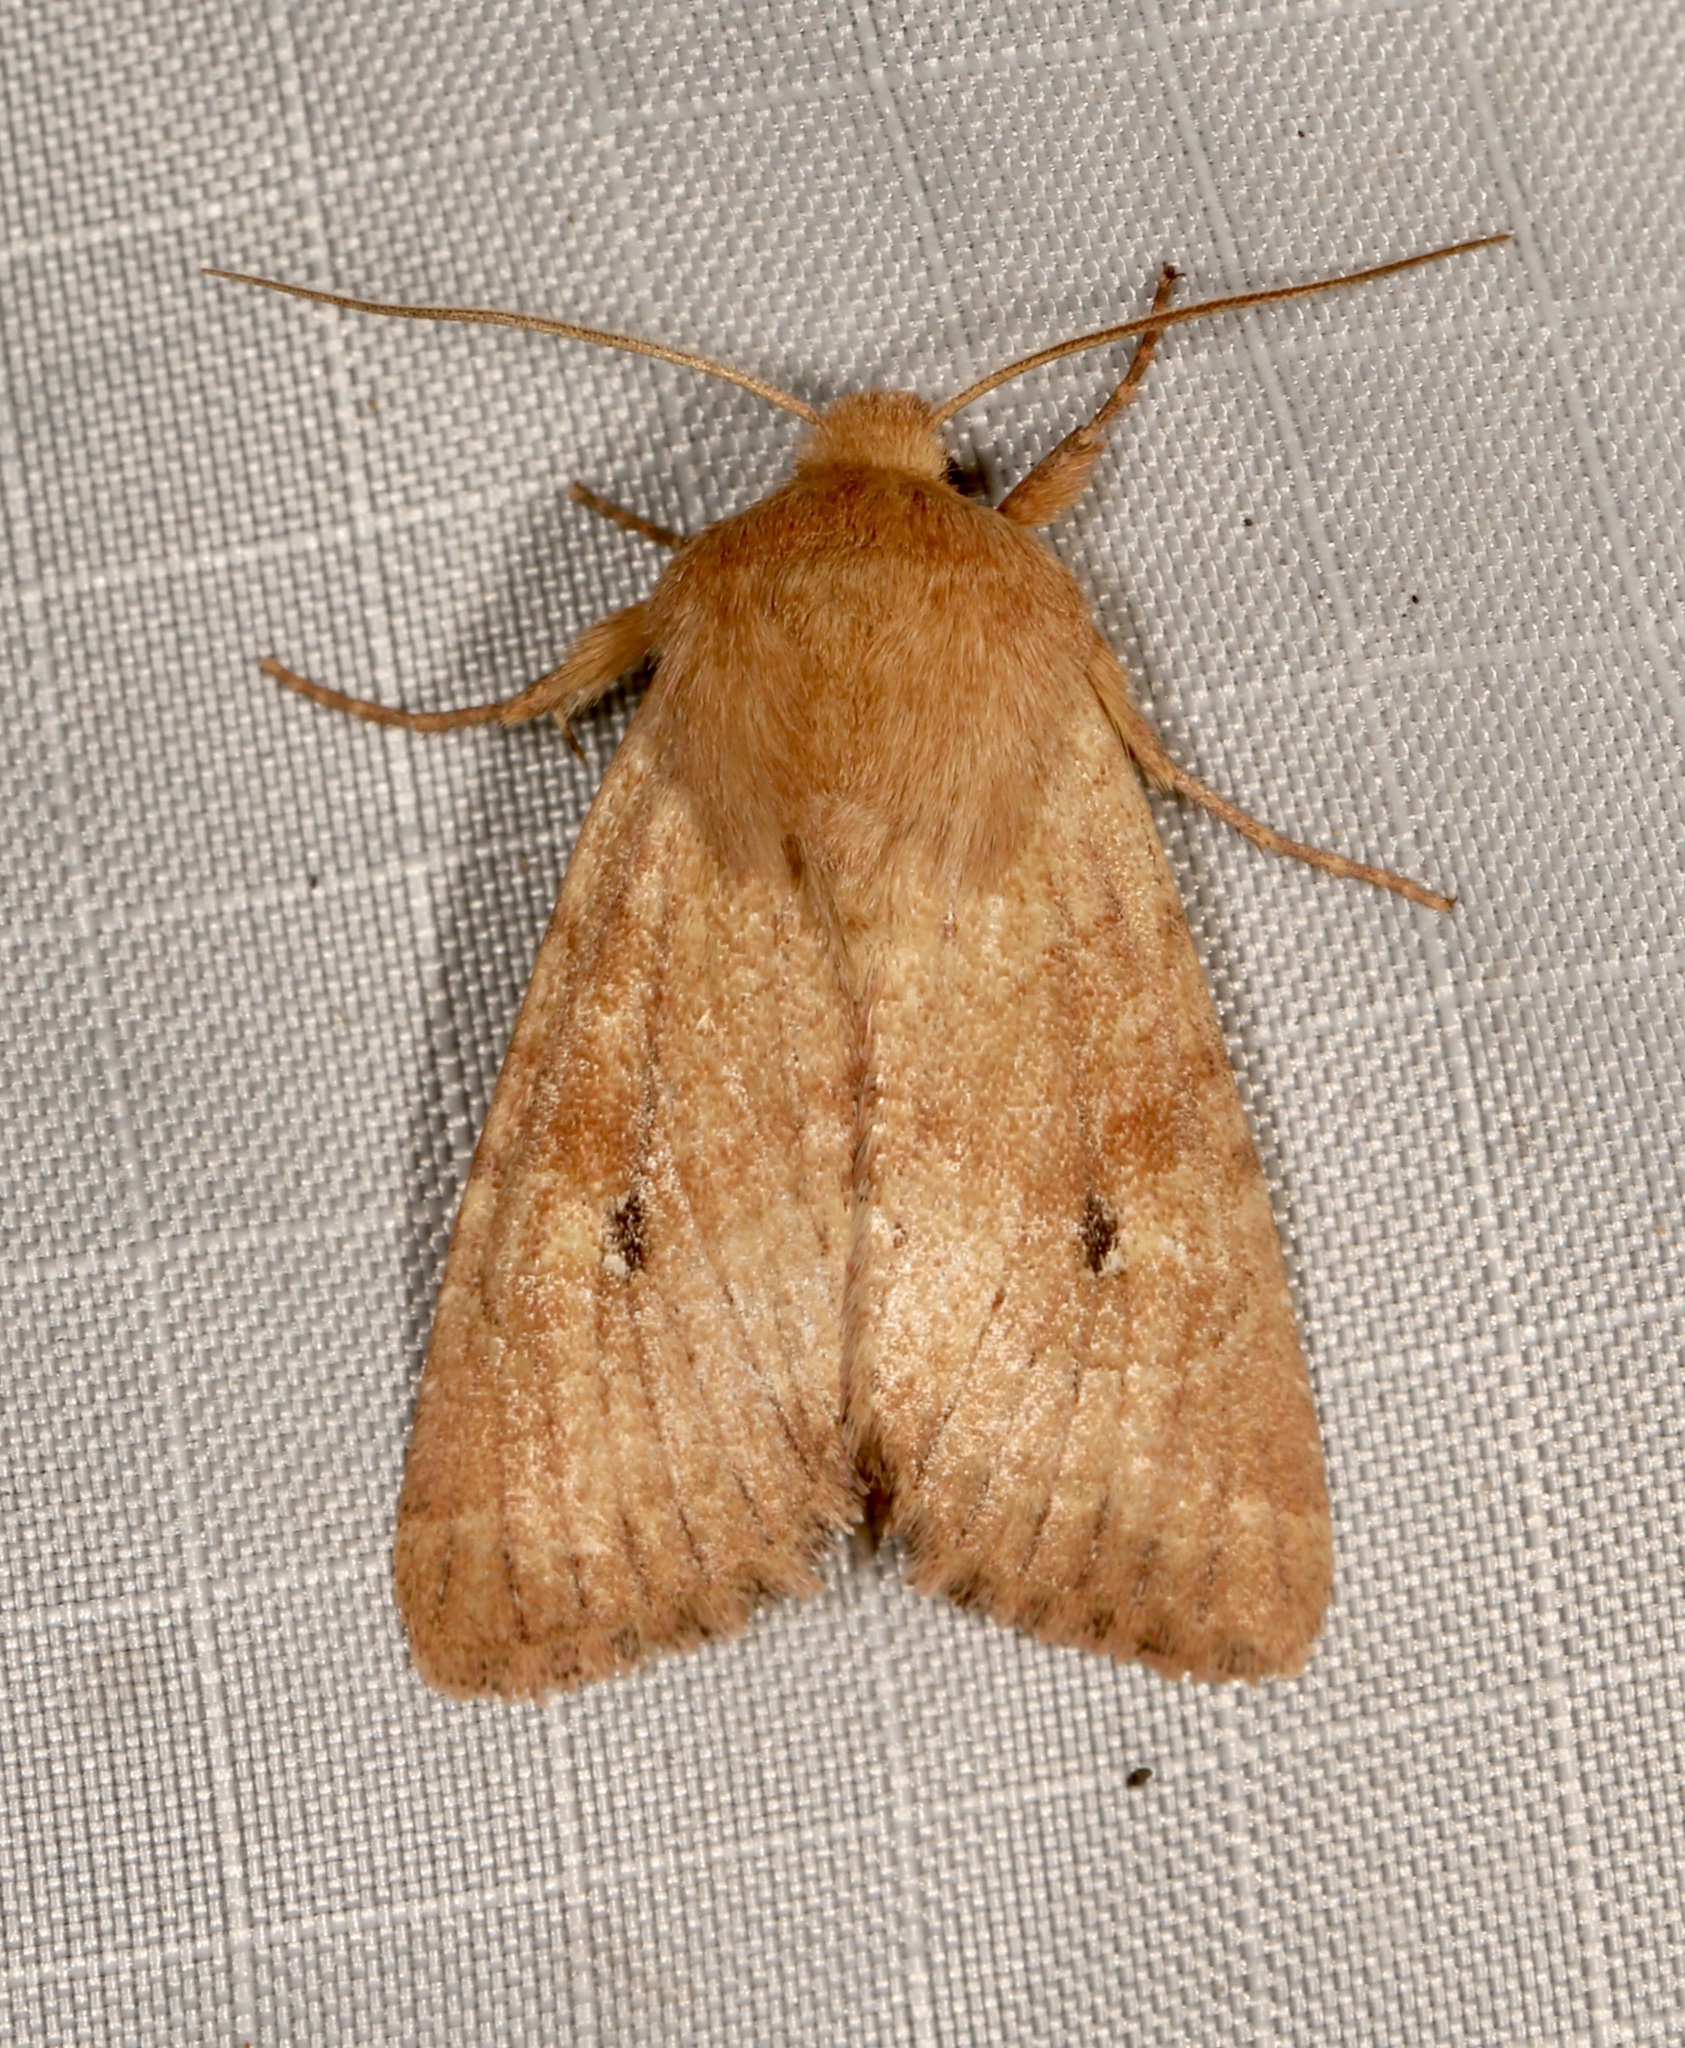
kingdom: Animalia
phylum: Arthropoda
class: Insecta
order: Lepidoptera
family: Noctuidae
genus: Apamea
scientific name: Apamea inficita
